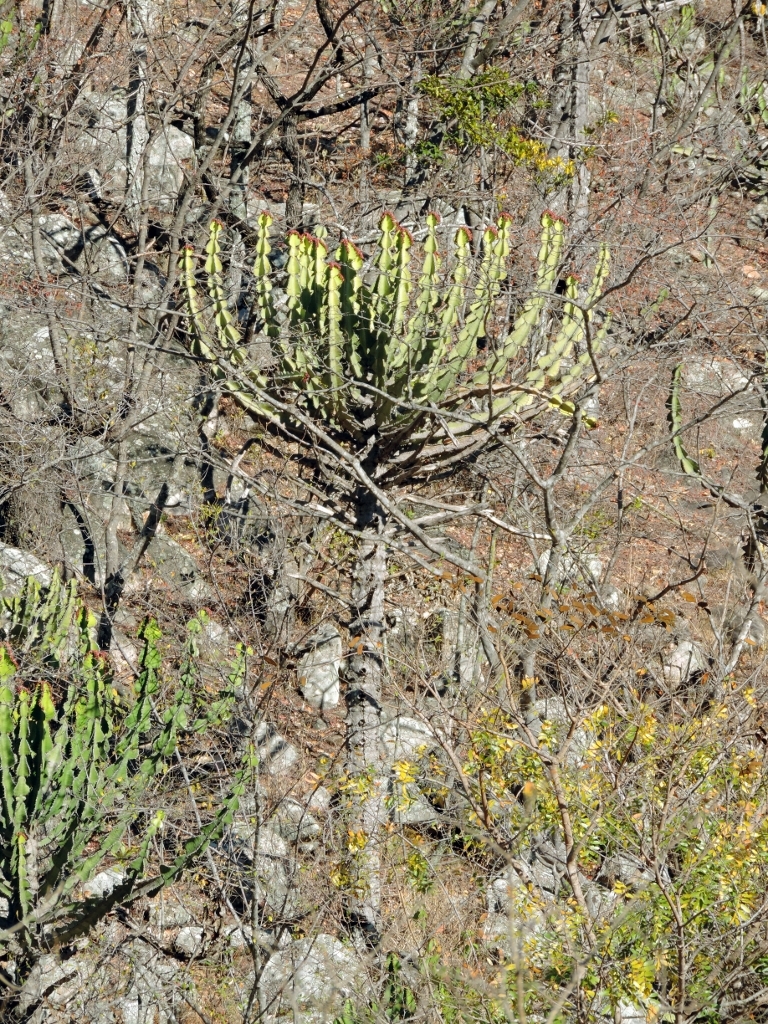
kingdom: Plantae
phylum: Tracheophyta
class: Magnoliopsida
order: Malpighiales
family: Euphorbiaceae
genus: Euphorbia
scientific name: Euphorbia cooperi
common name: Candelabra tree
